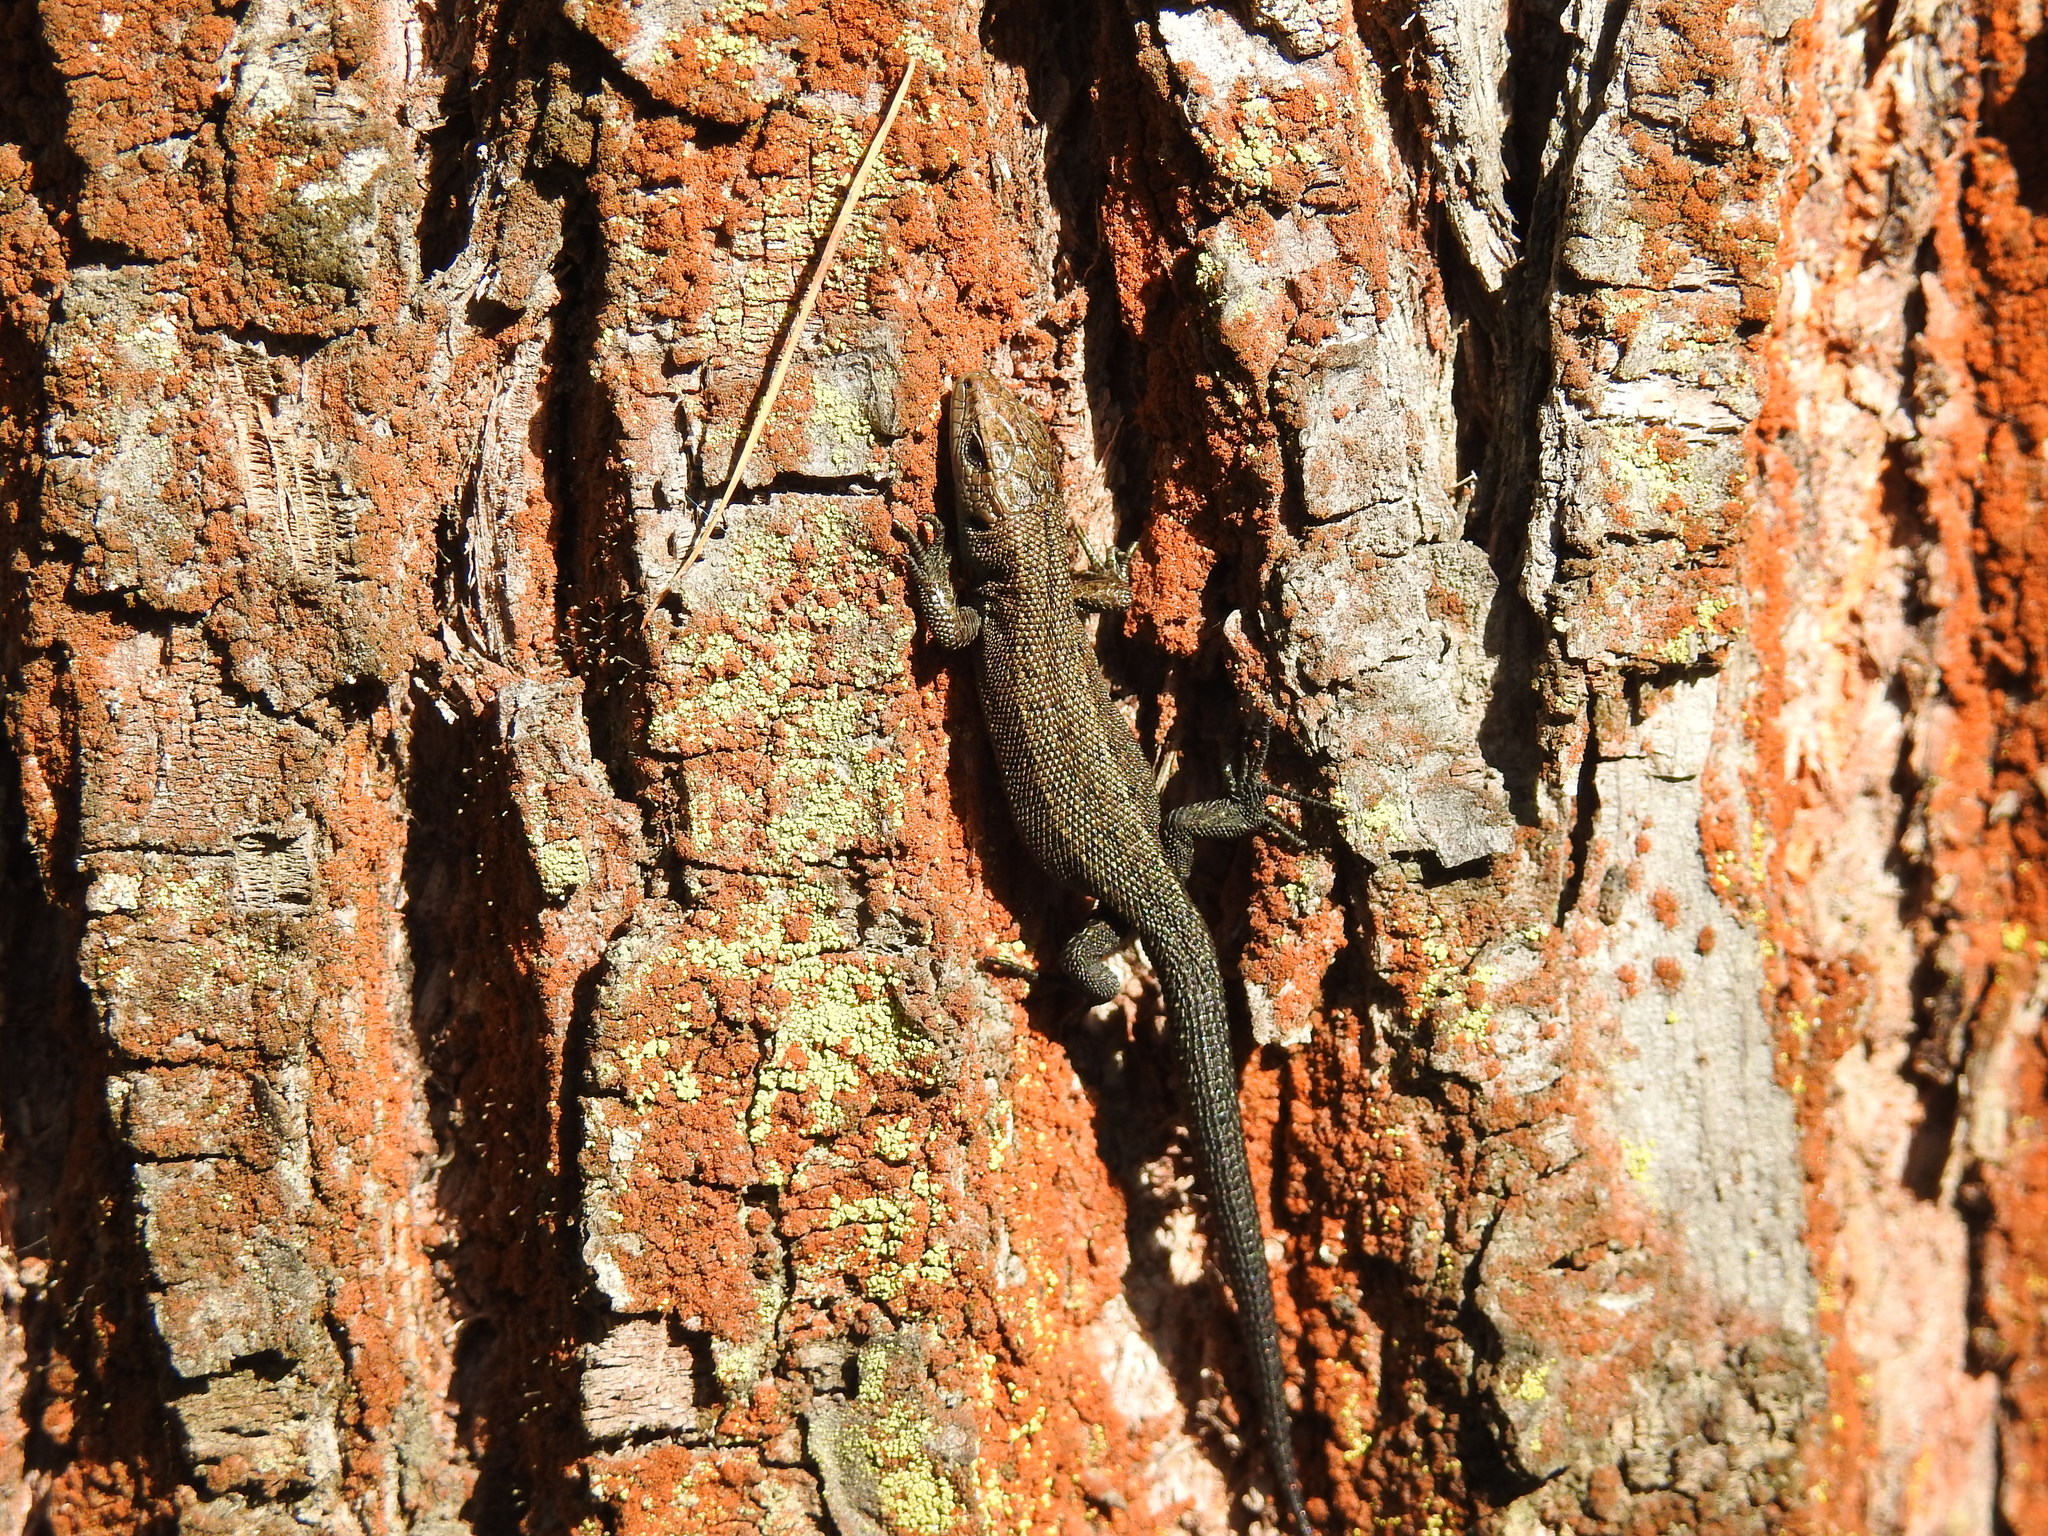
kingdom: Animalia
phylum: Chordata
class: Squamata
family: Lacertidae
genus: Zootoca
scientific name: Zootoca vivipara
